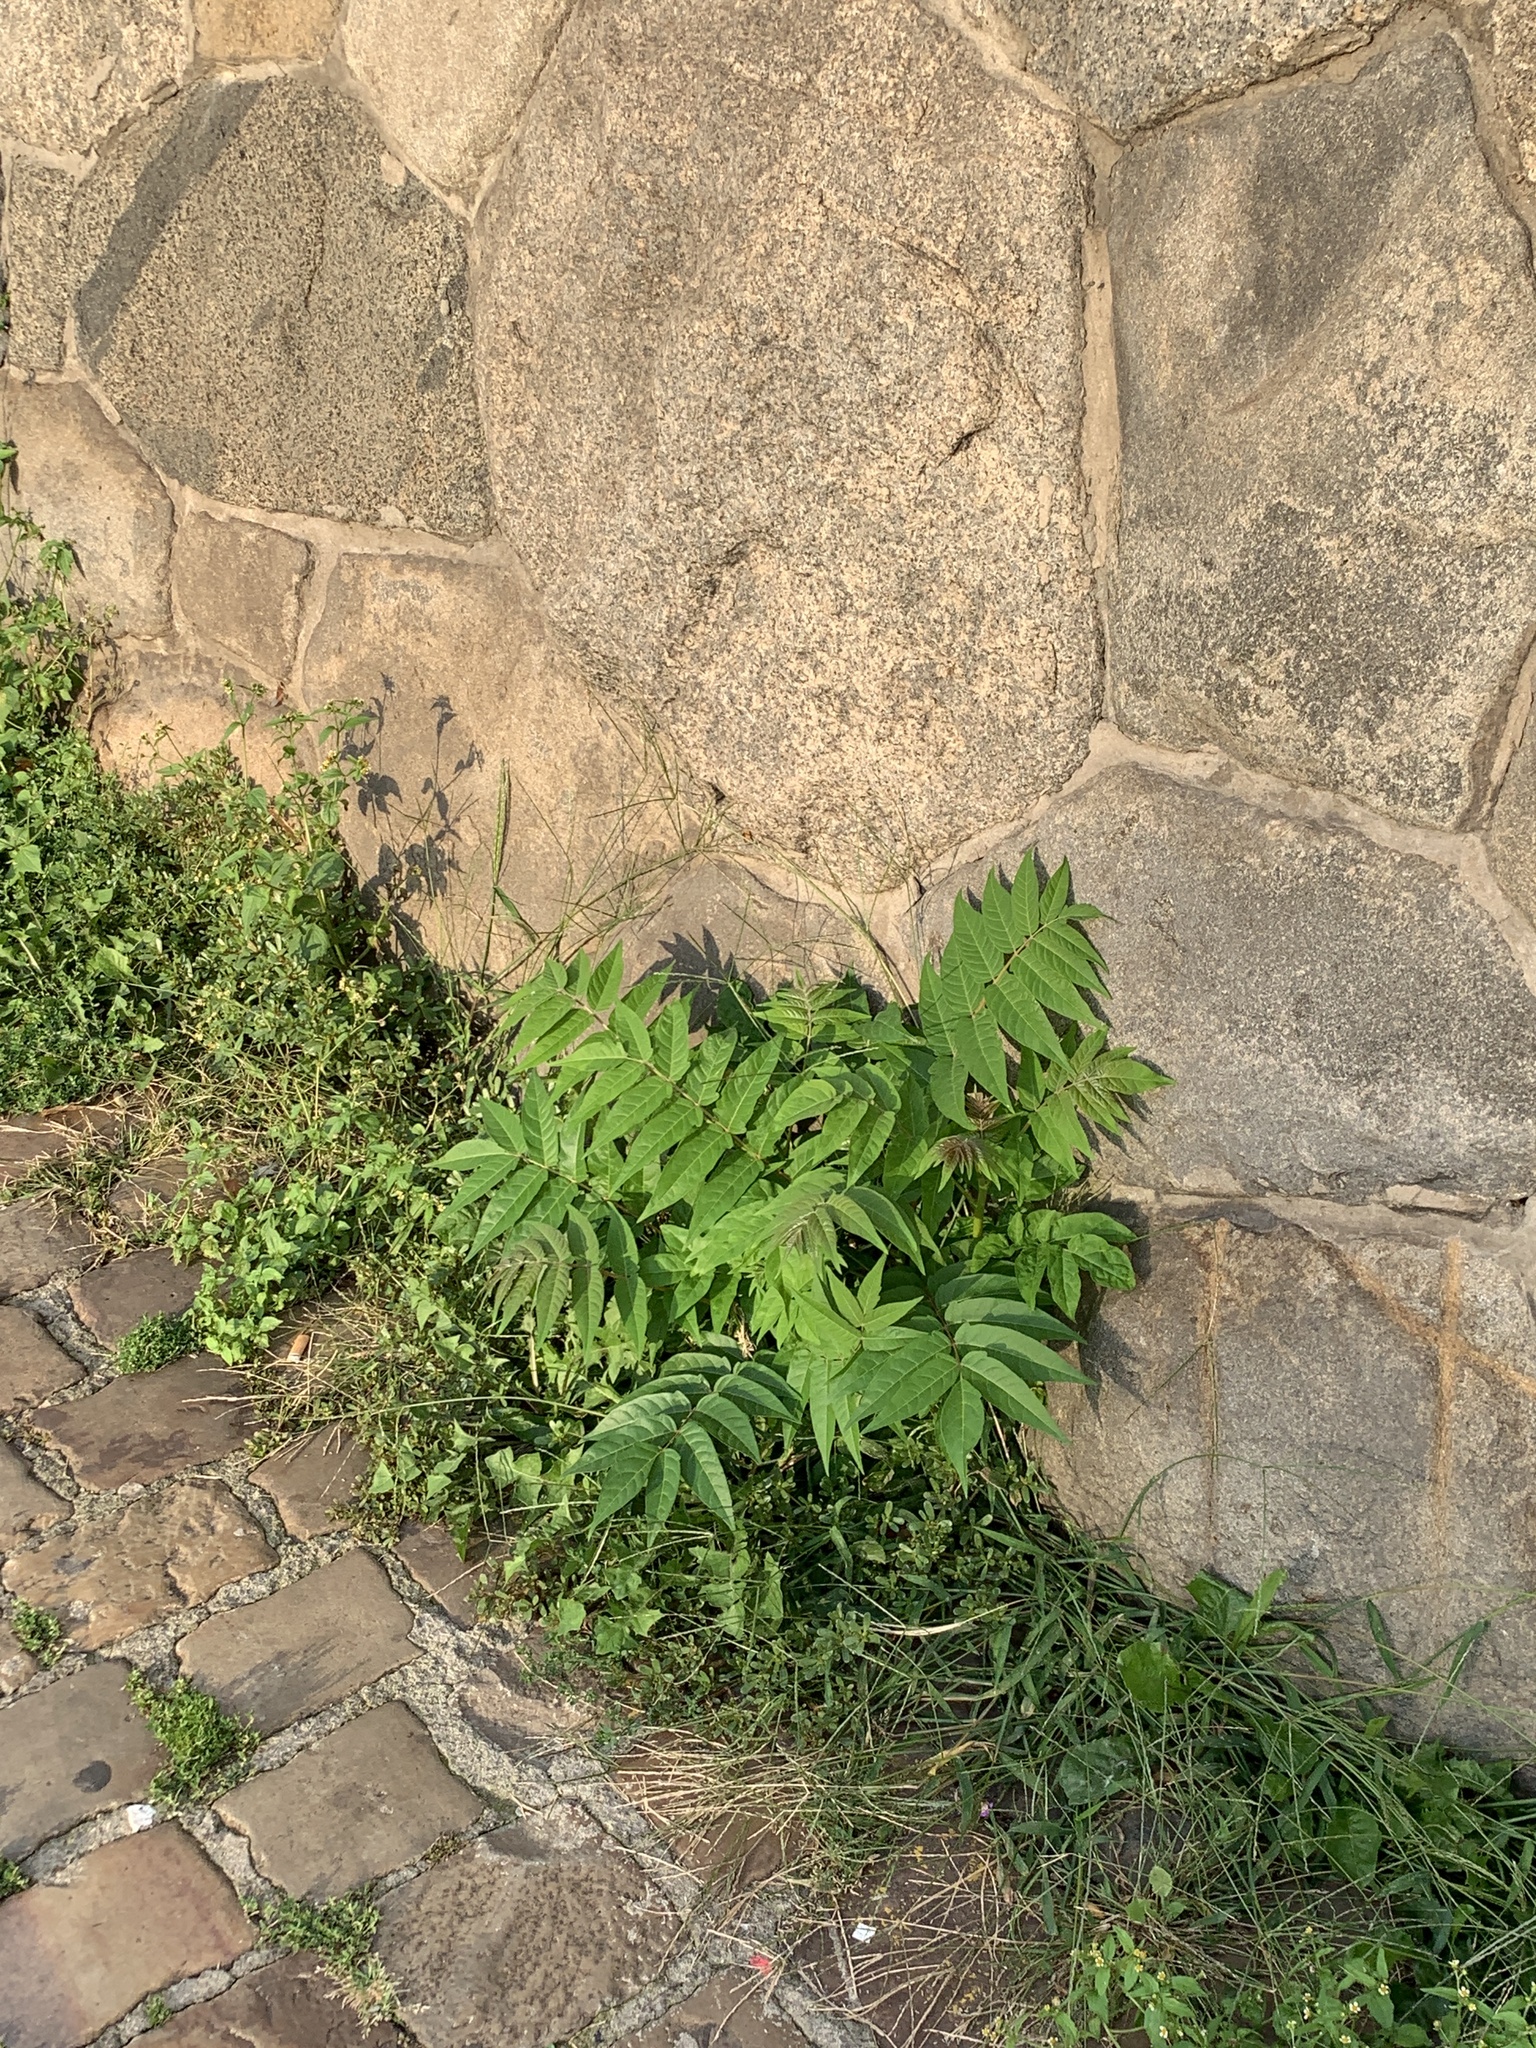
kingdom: Plantae
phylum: Tracheophyta
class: Magnoliopsida
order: Sapindales
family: Simaroubaceae
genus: Ailanthus
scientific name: Ailanthus altissima
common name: Tree-of-heaven
